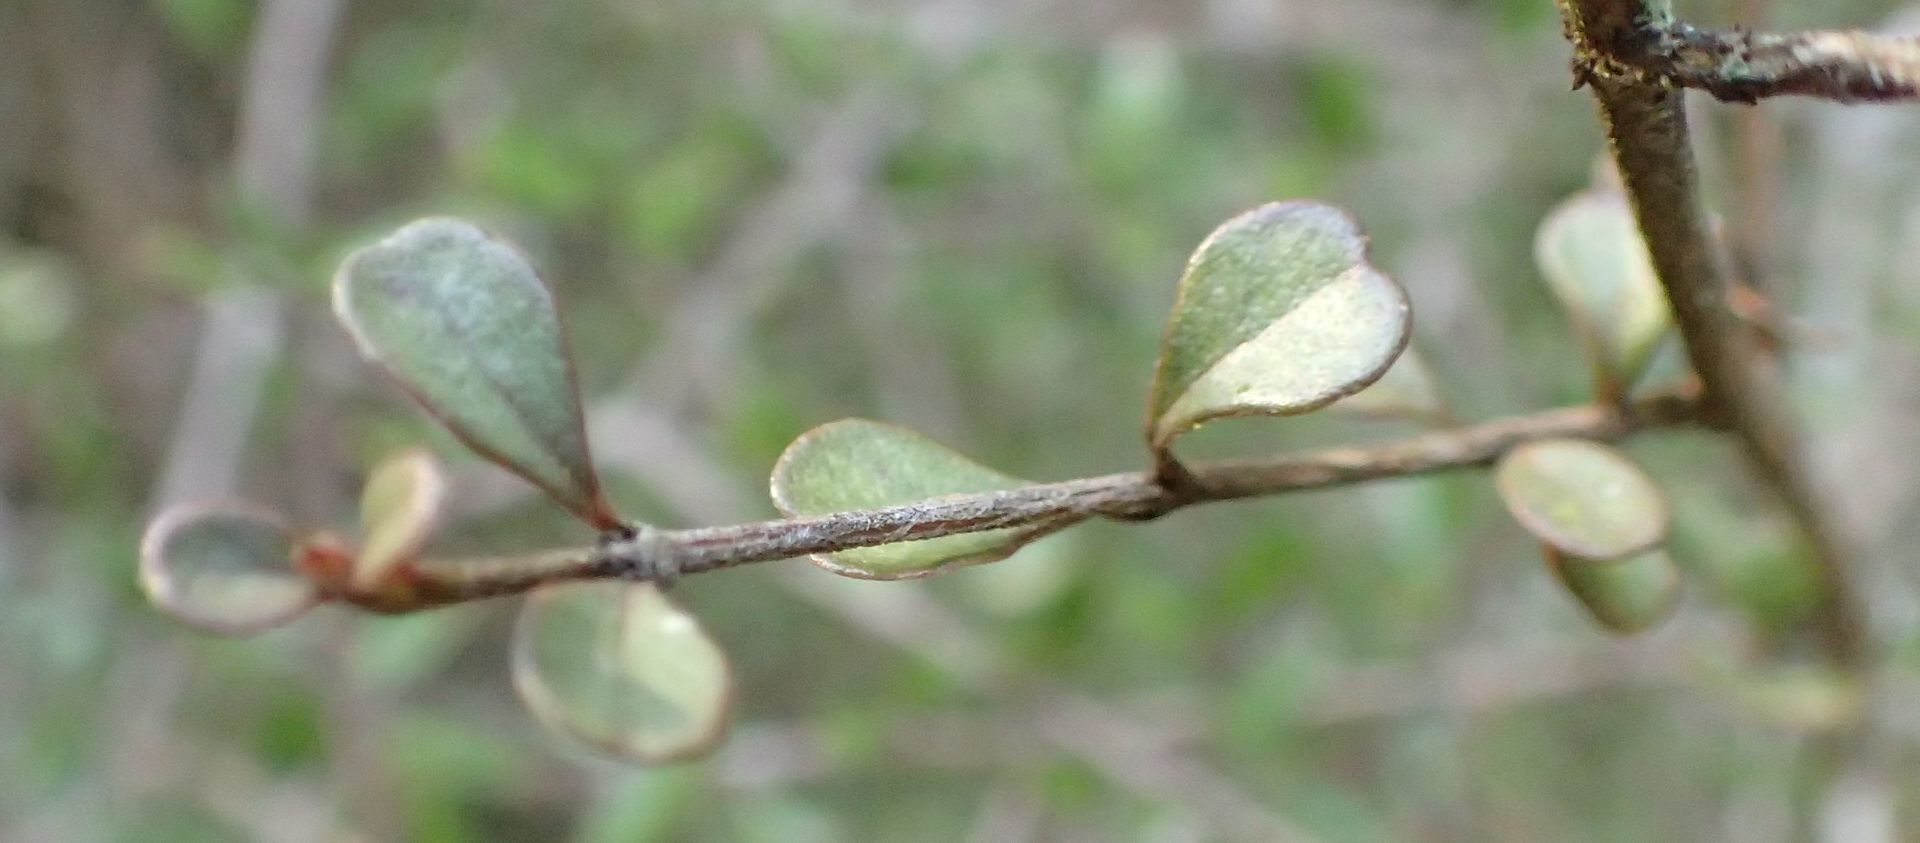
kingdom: Plantae
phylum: Tracheophyta
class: Magnoliopsida
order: Myrtales
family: Myrtaceae
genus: Lophomyrtus
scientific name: Lophomyrtus obcordata
